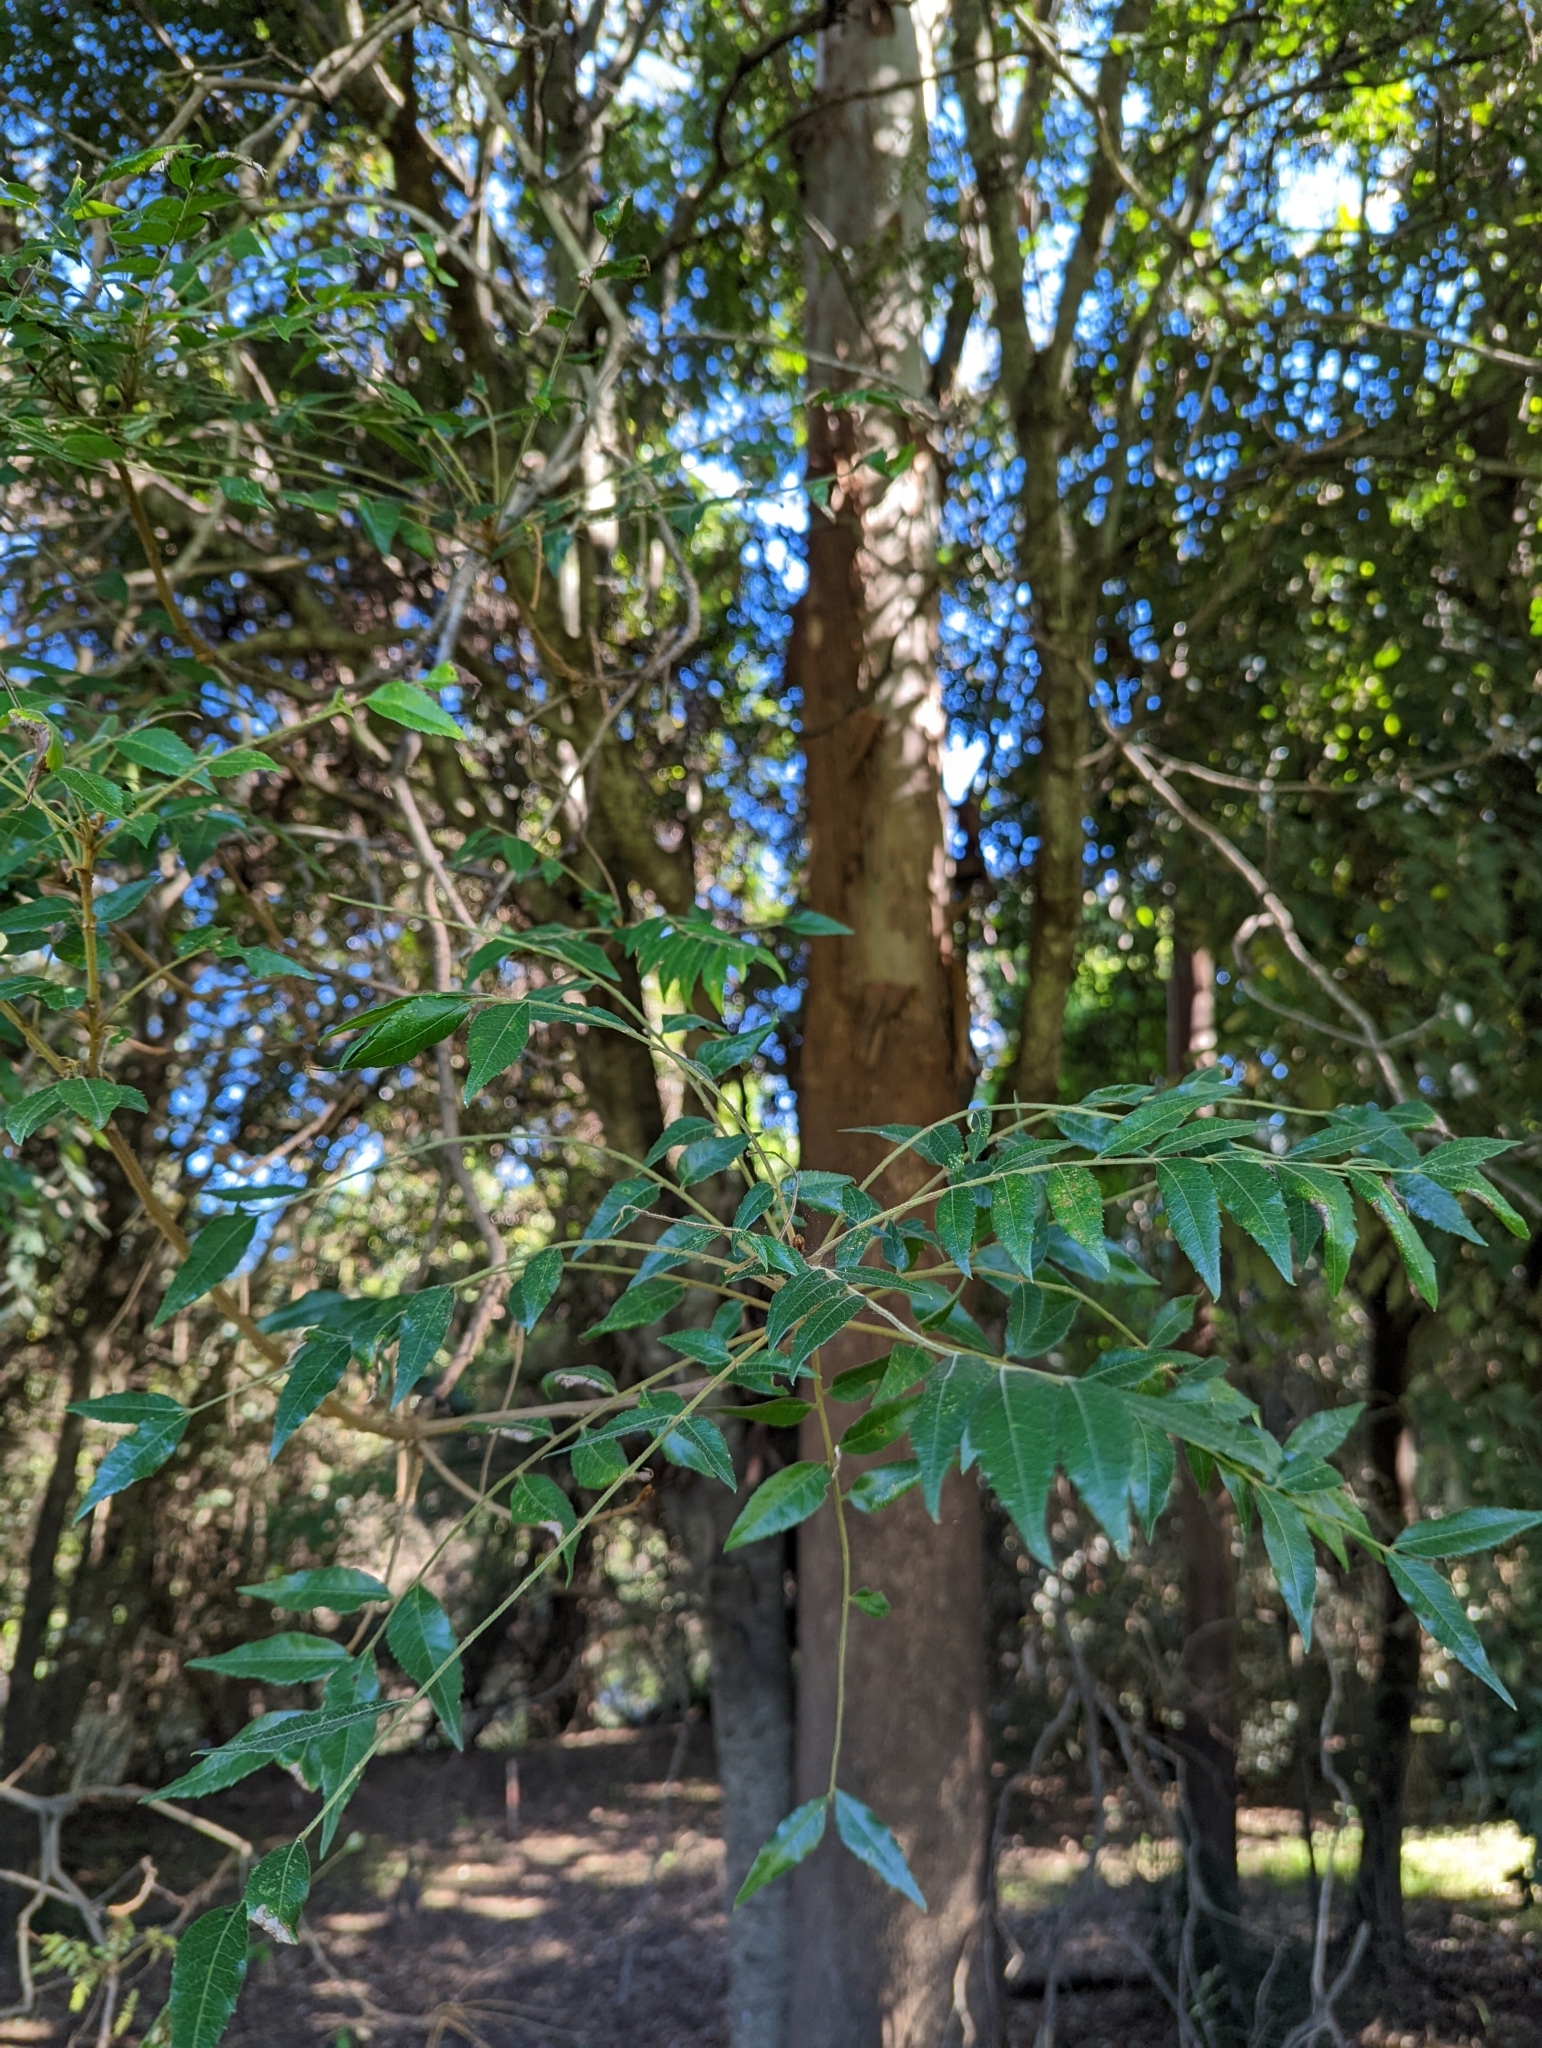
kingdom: Plantae
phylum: Tracheophyta
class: Magnoliopsida
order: Sapindales
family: Sapindaceae
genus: Jagera
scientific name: Jagera pseudorhus
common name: Fern-leaf-tamarind
